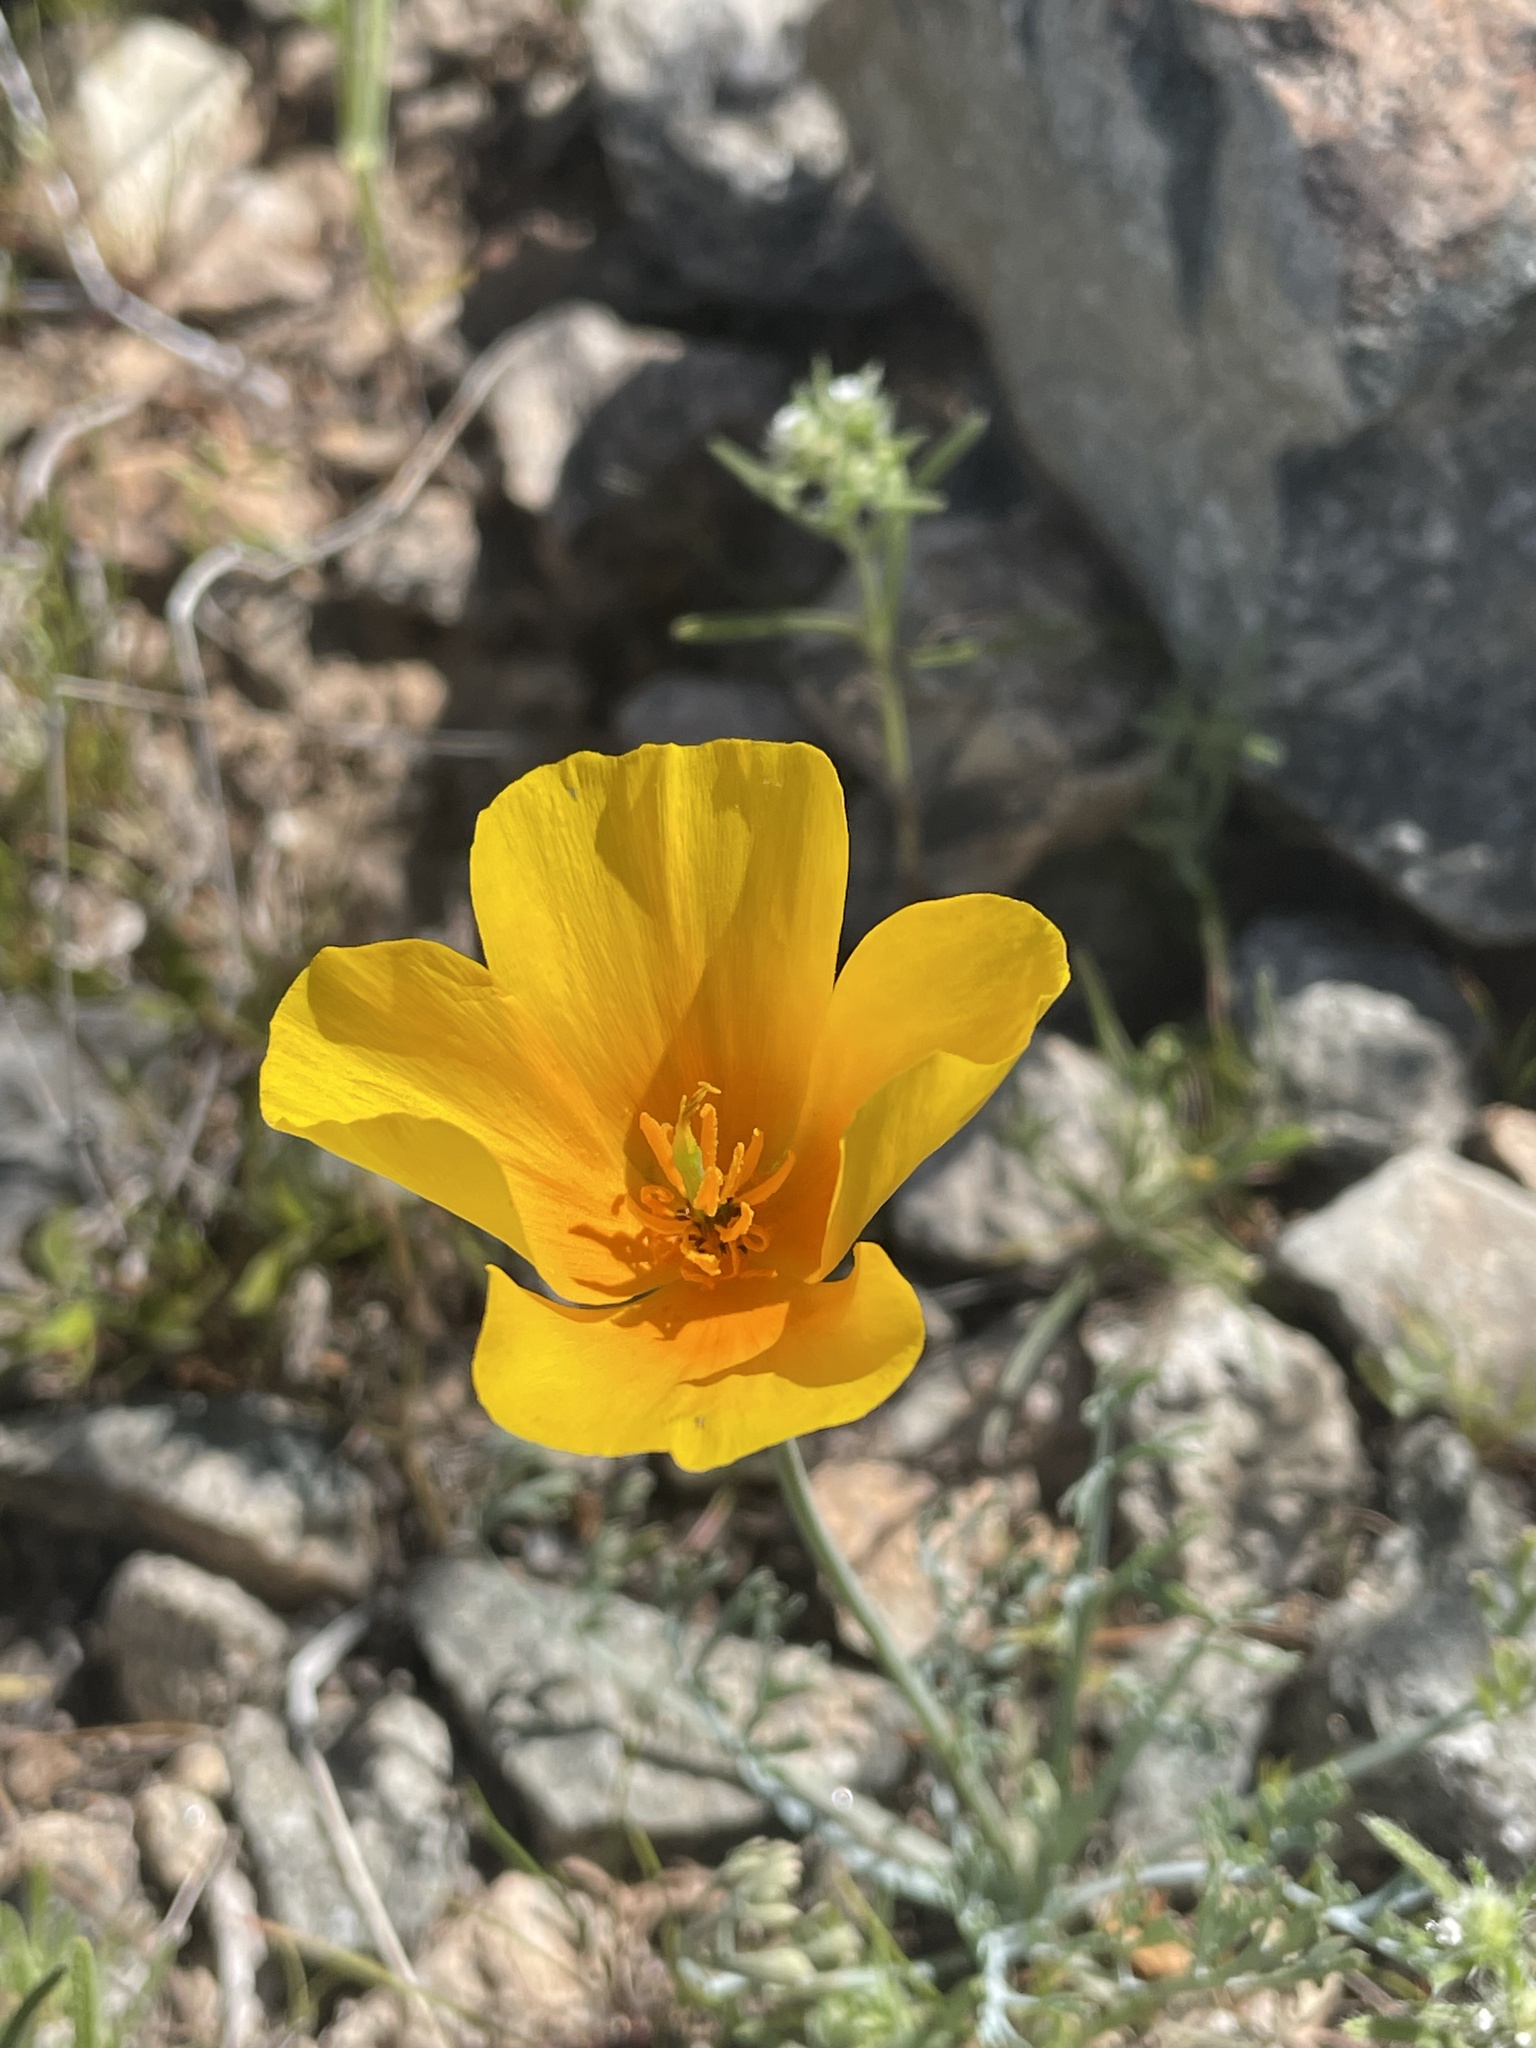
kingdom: Plantae
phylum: Tracheophyta
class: Magnoliopsida
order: Ranunculales
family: Papaveraceae
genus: Eschscholzia
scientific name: Eschscholzia californica
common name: California poppy
